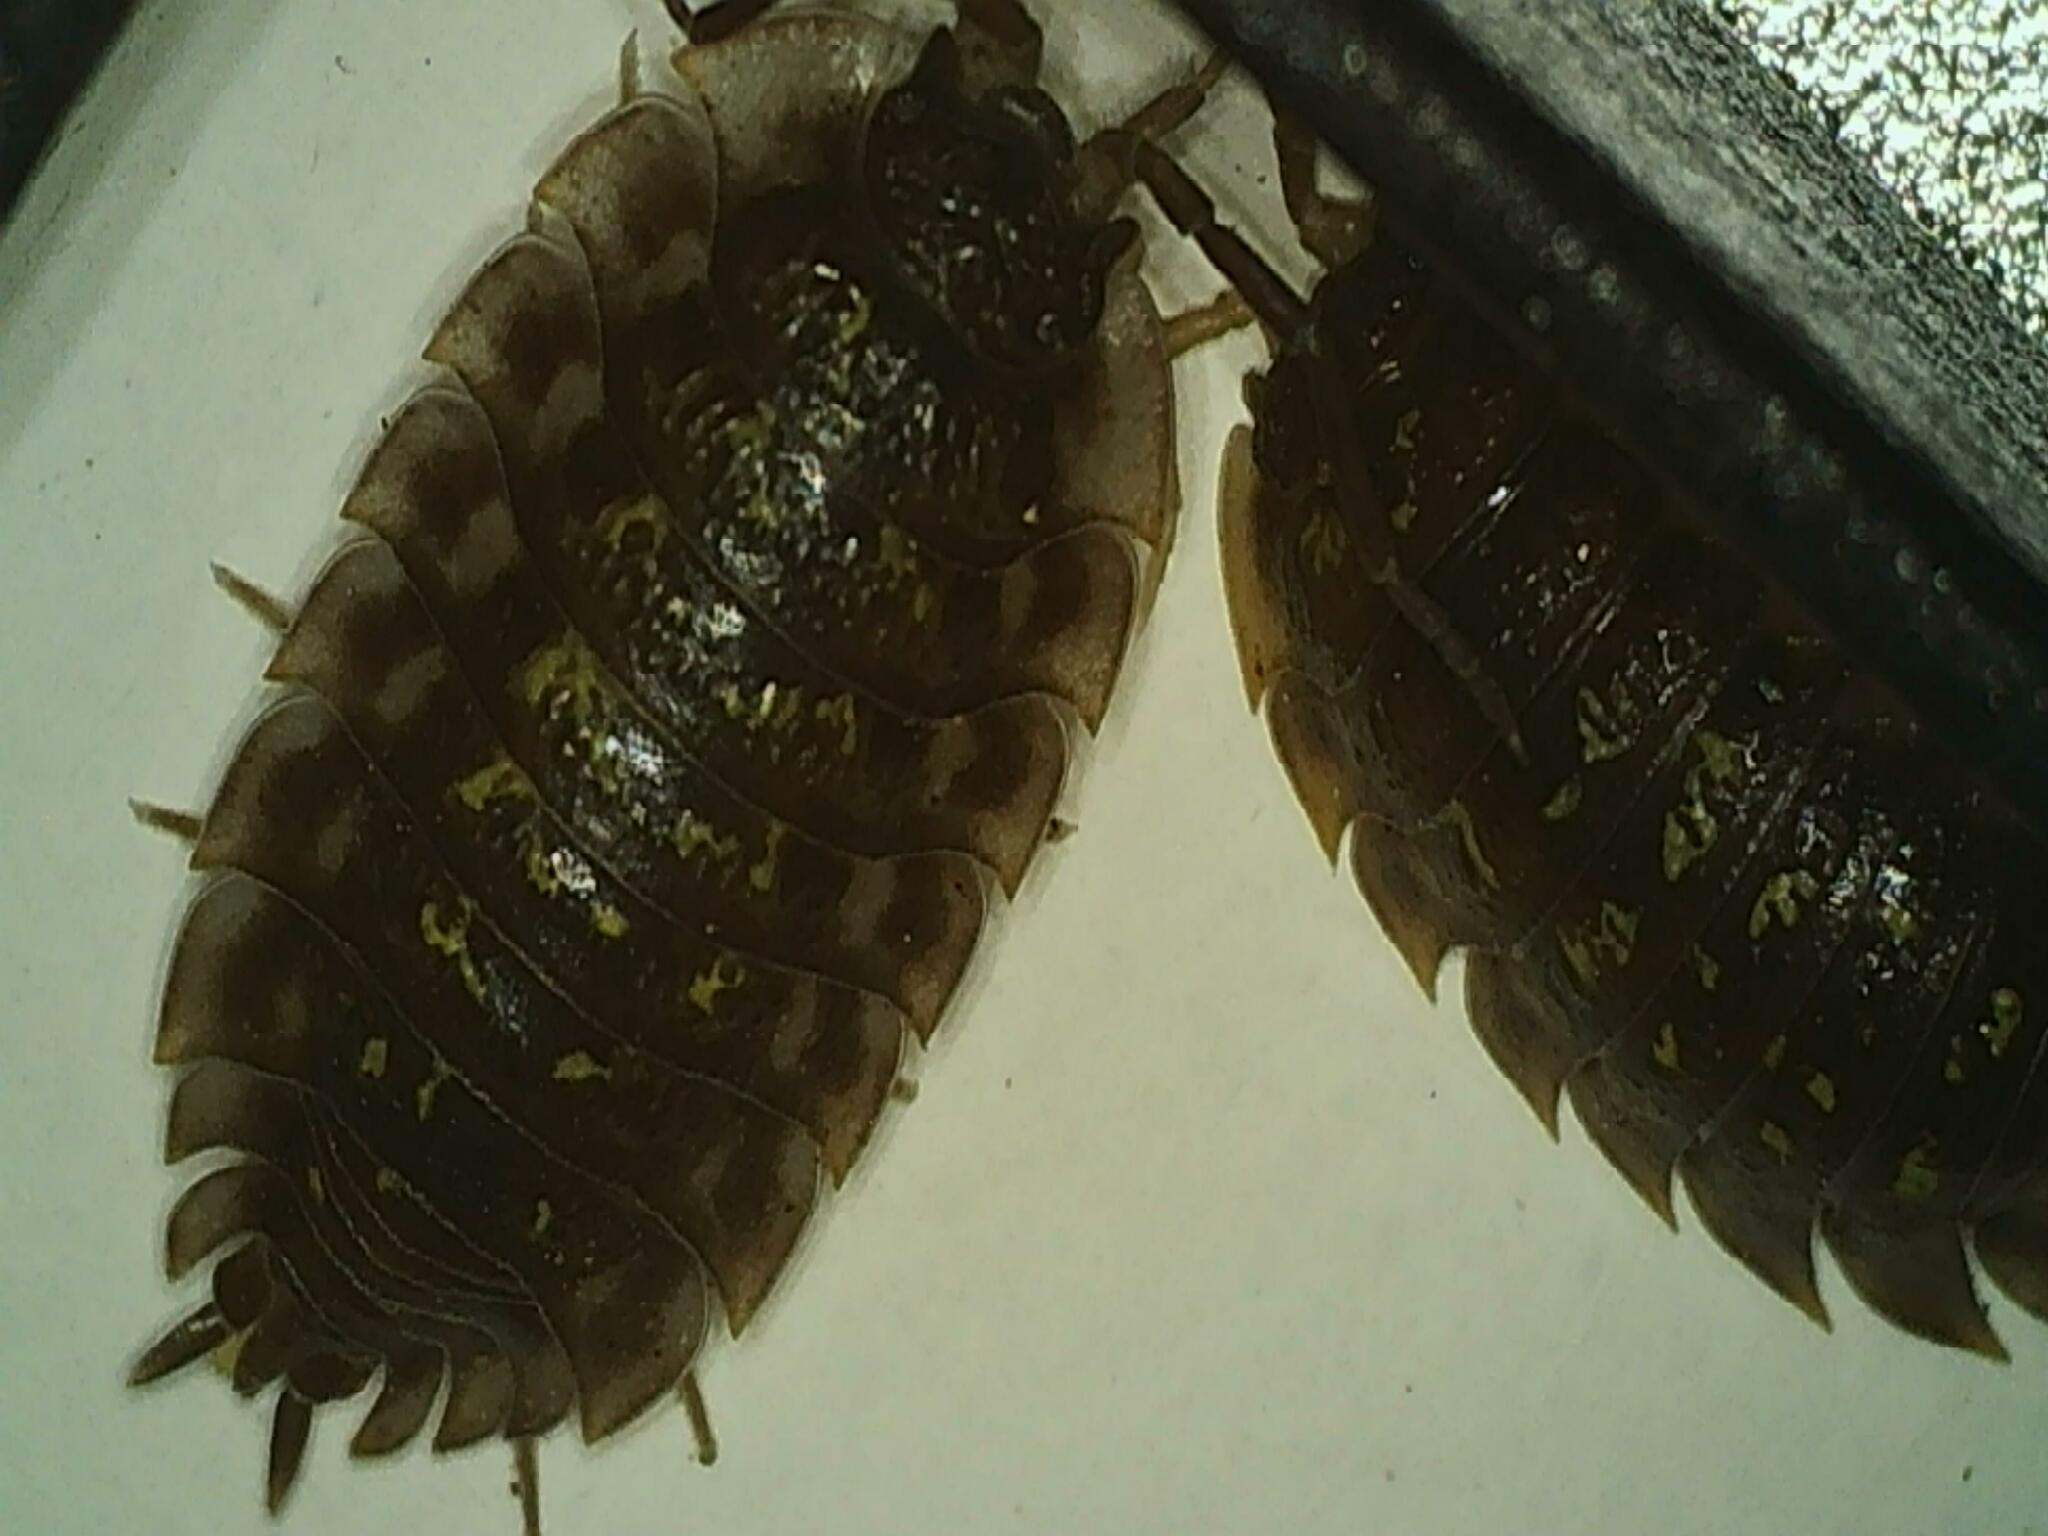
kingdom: Animalia
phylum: Arthropoda
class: Malacostraca
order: Isopoda
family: Oniscidae
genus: Oniscus
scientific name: Oniscus asellus
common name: Common shiny woodlouse
